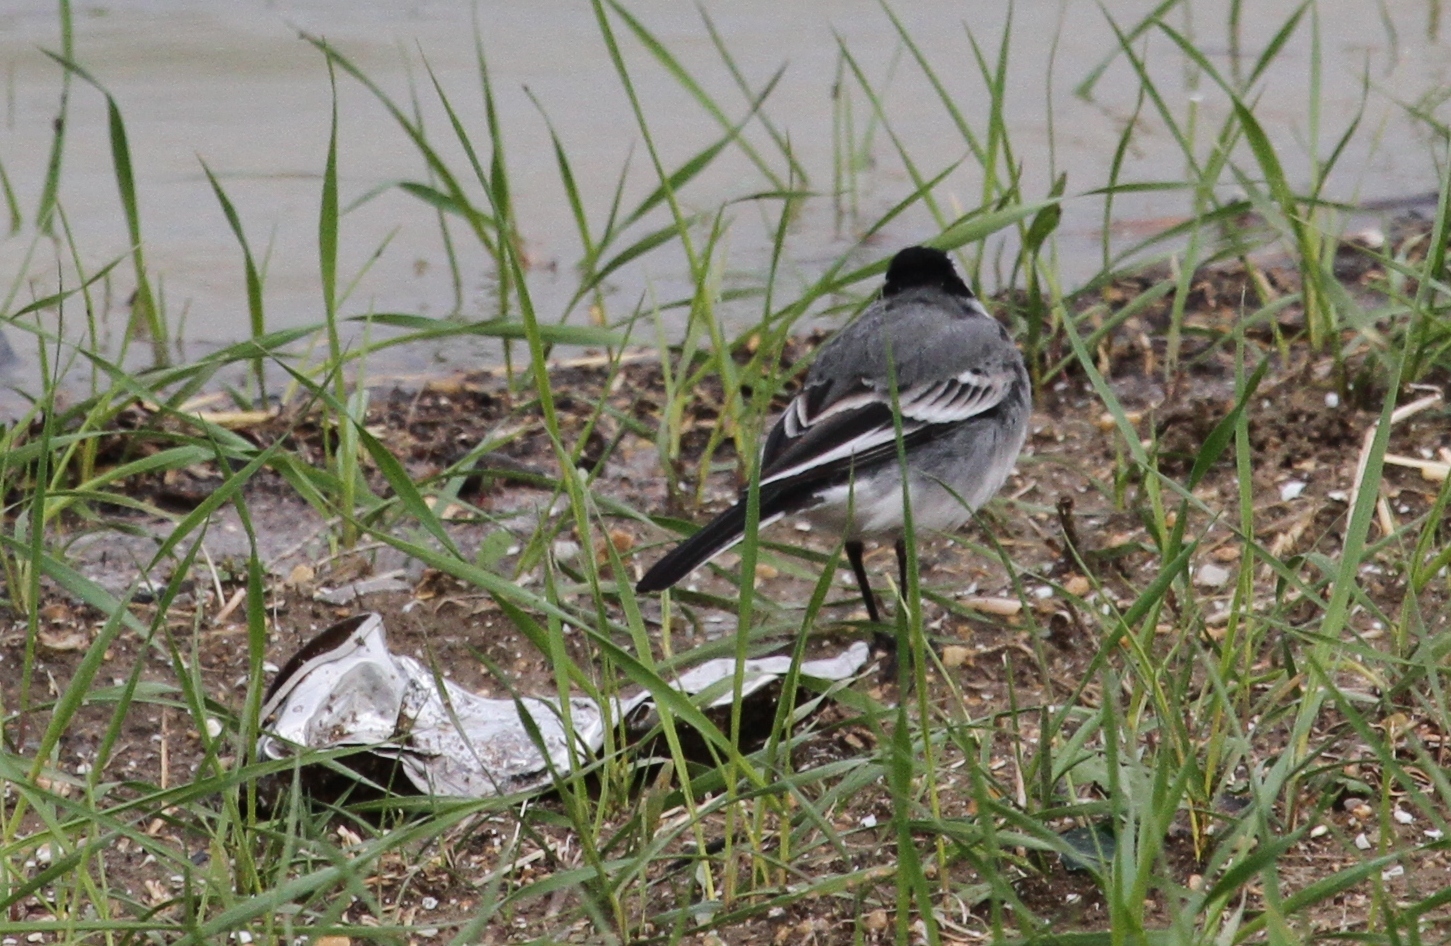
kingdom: Animalia
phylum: Chordata
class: Aves
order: Passeriformes
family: Motacillidae
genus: Motacilla
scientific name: Motacilla alba
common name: White wagtail
